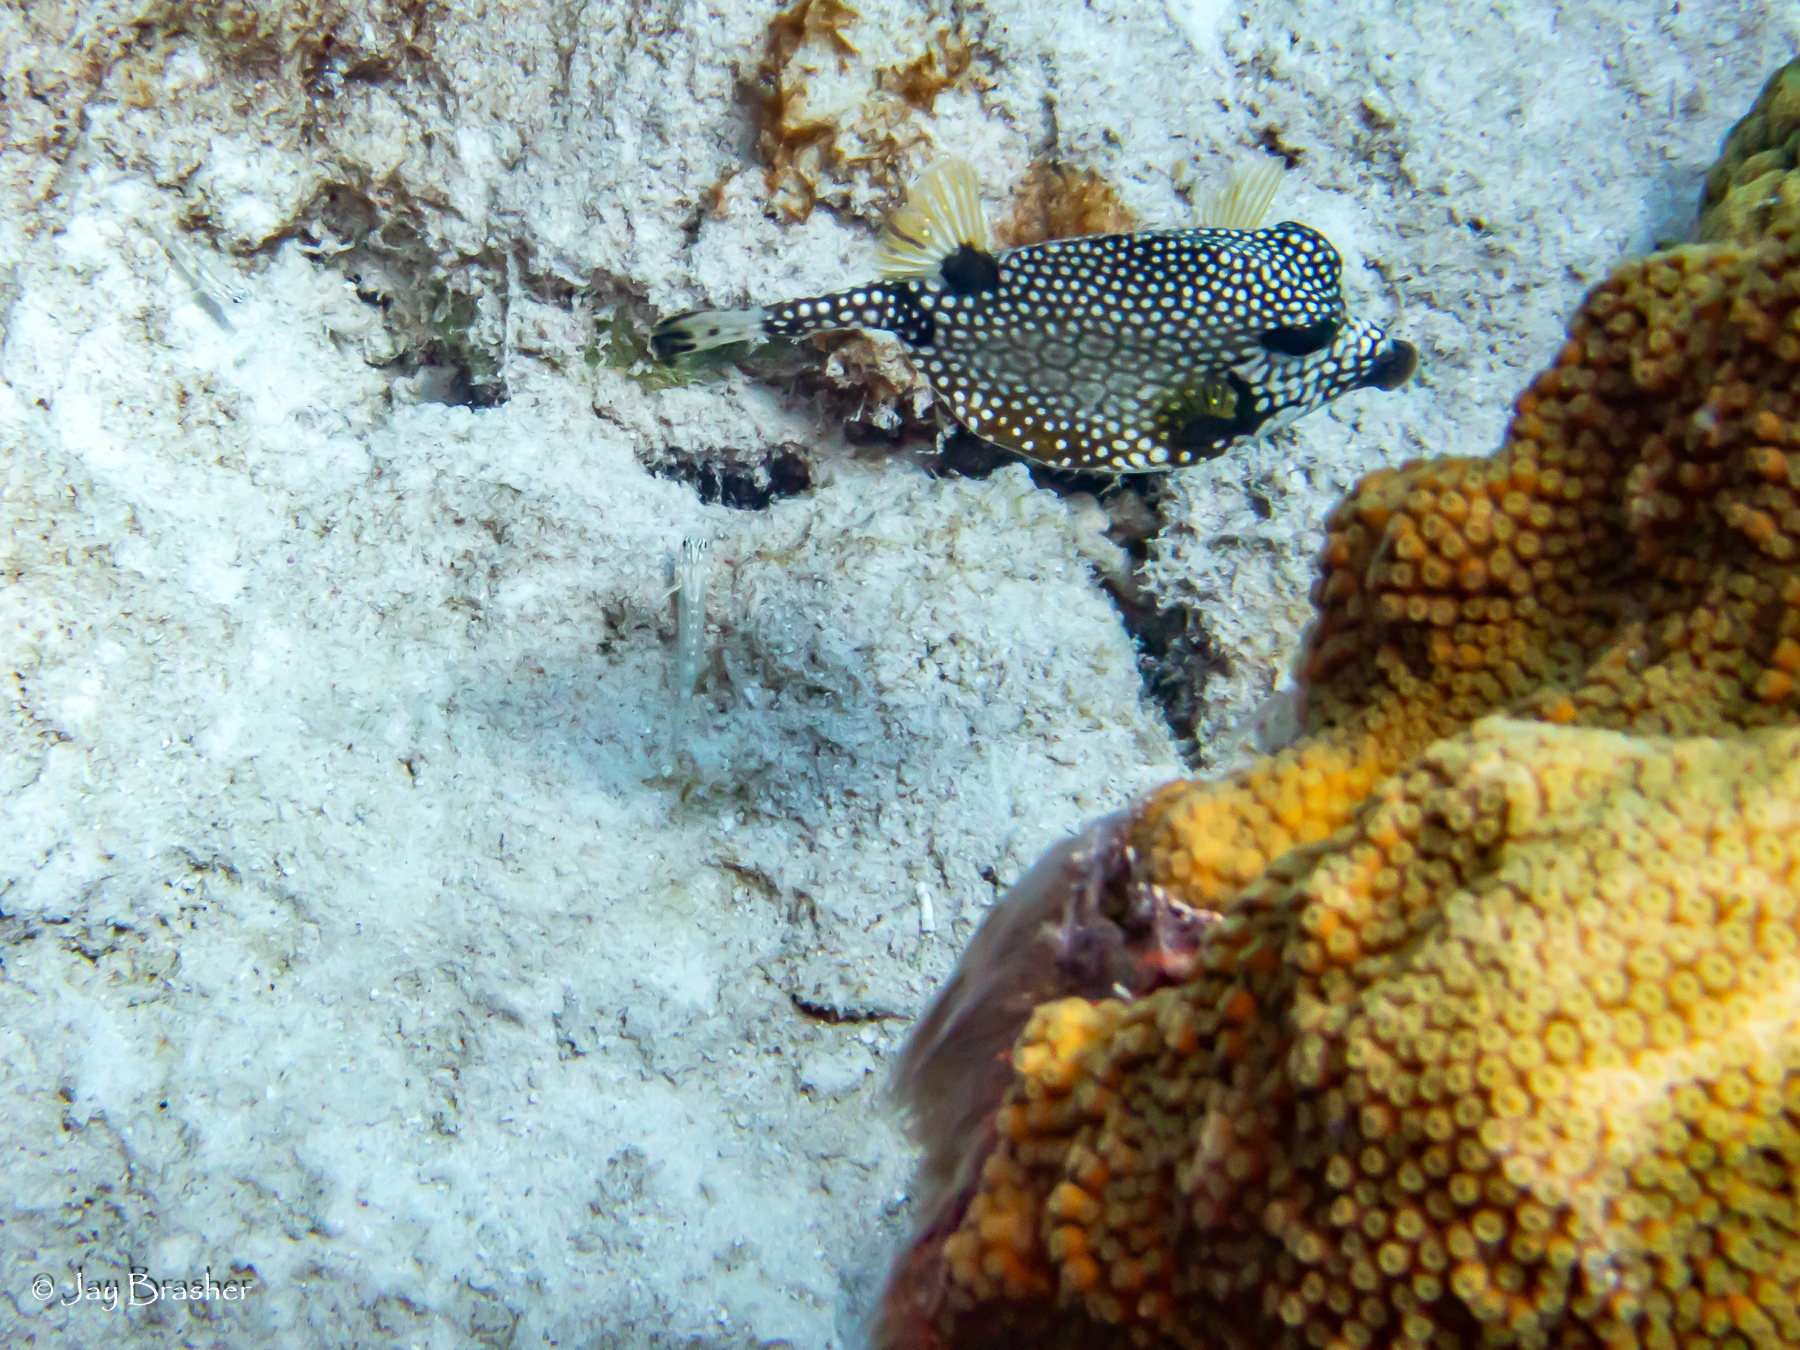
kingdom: Animalia
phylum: Chordata
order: Tetraodontiformes
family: Ostraciidae
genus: Lactophrys
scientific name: Lactophrys triqueter
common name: Smooth trunkfish
